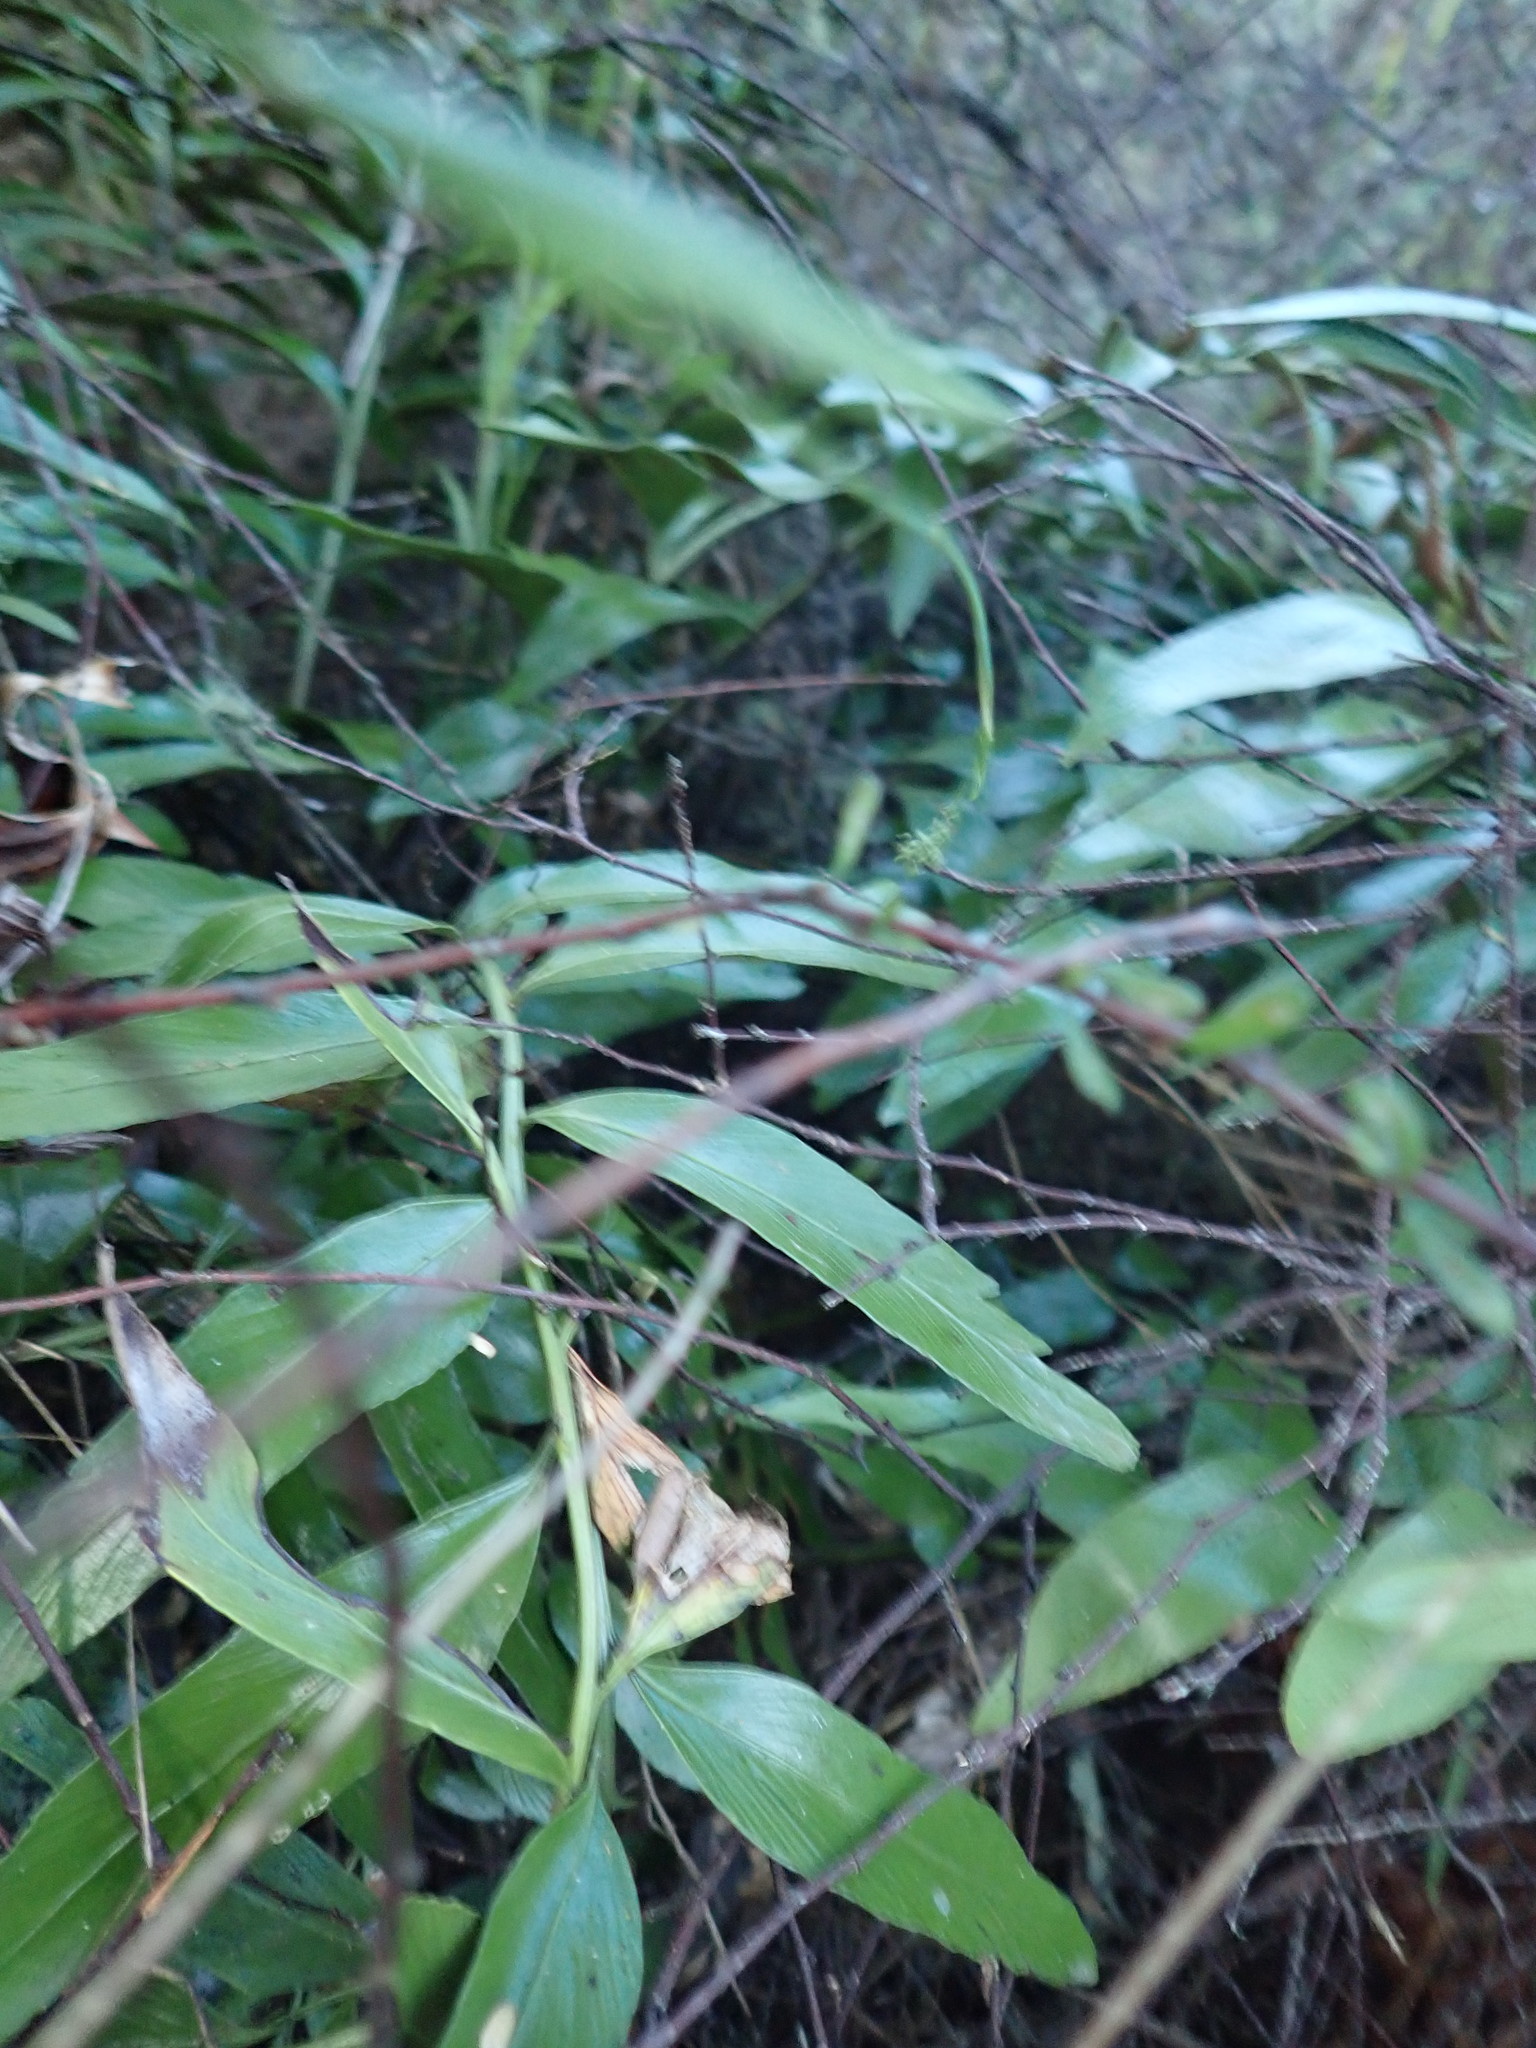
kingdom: Plantae
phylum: Tracheophyta
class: Polypodiopsida
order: Polypodiales
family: Aspleniaceae
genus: Asplenium
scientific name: Asplenium oblongifolium
